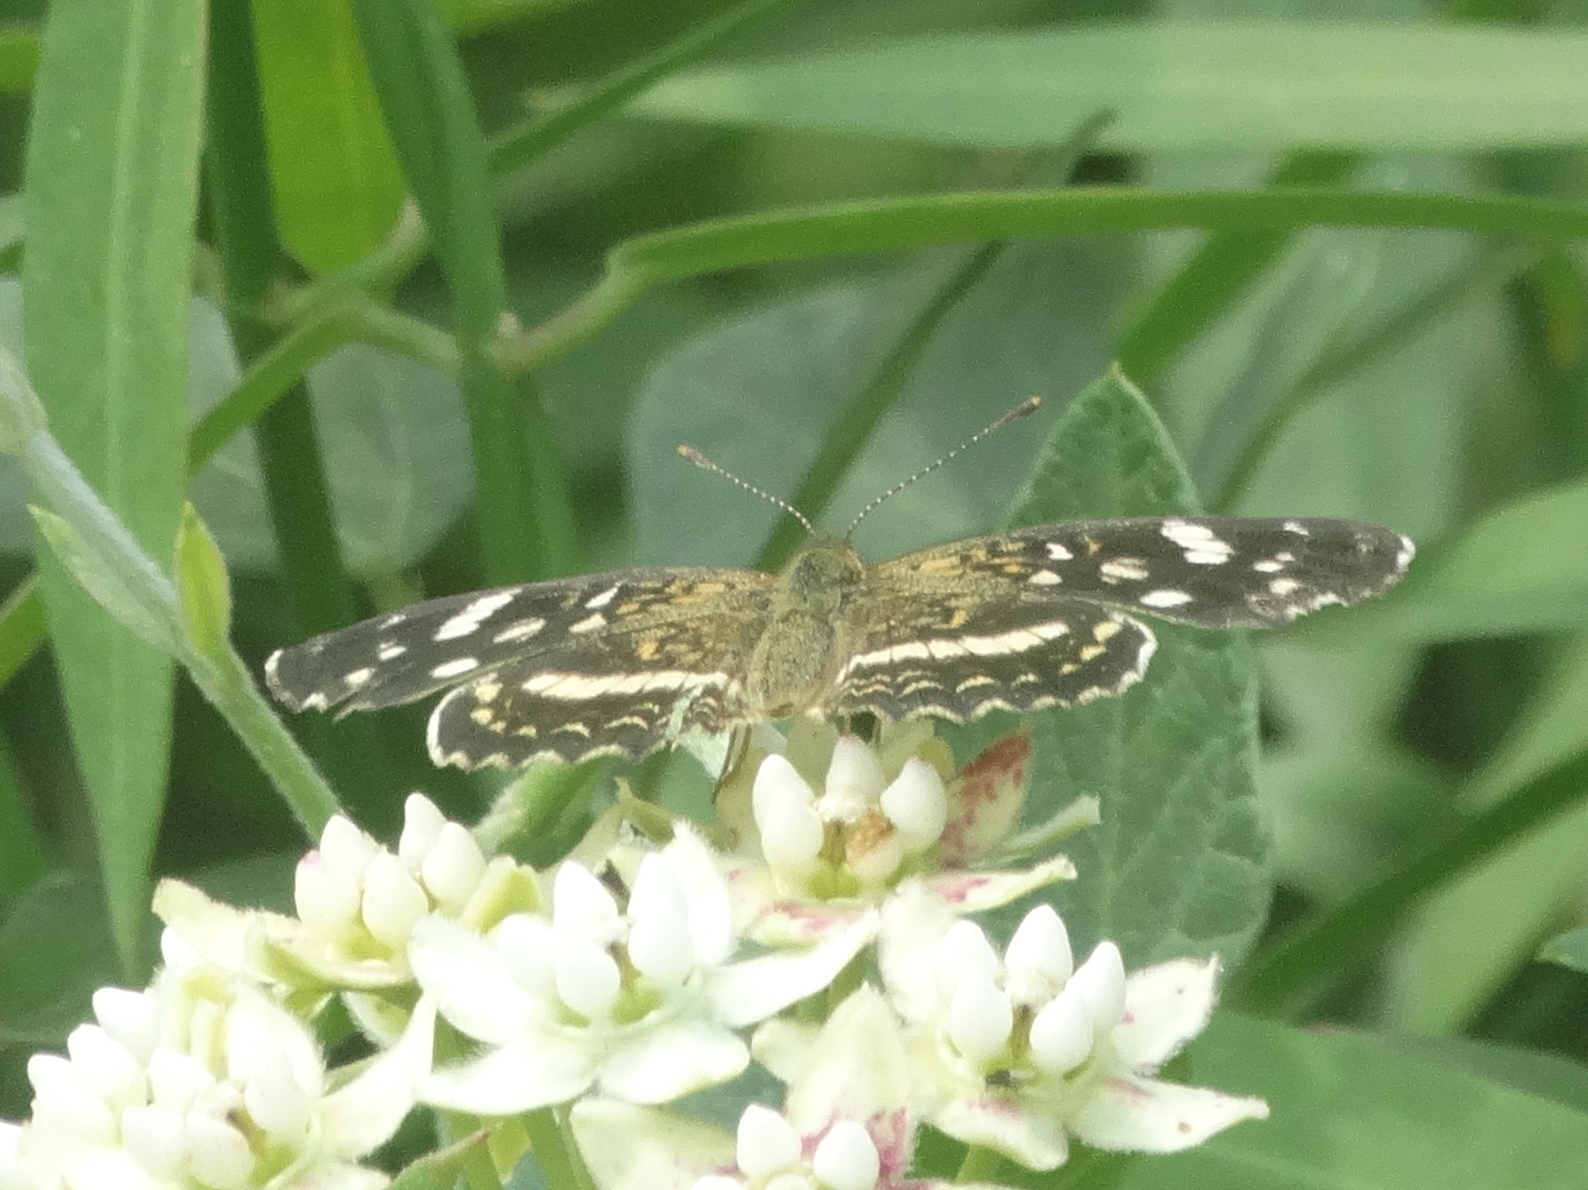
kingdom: Animalia
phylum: Arthropoda
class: Insecta
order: Lepidoptera
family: Nymphalidae
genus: Anthanassa
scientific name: Anthanassa tulcis
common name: Pale-banded crescent
